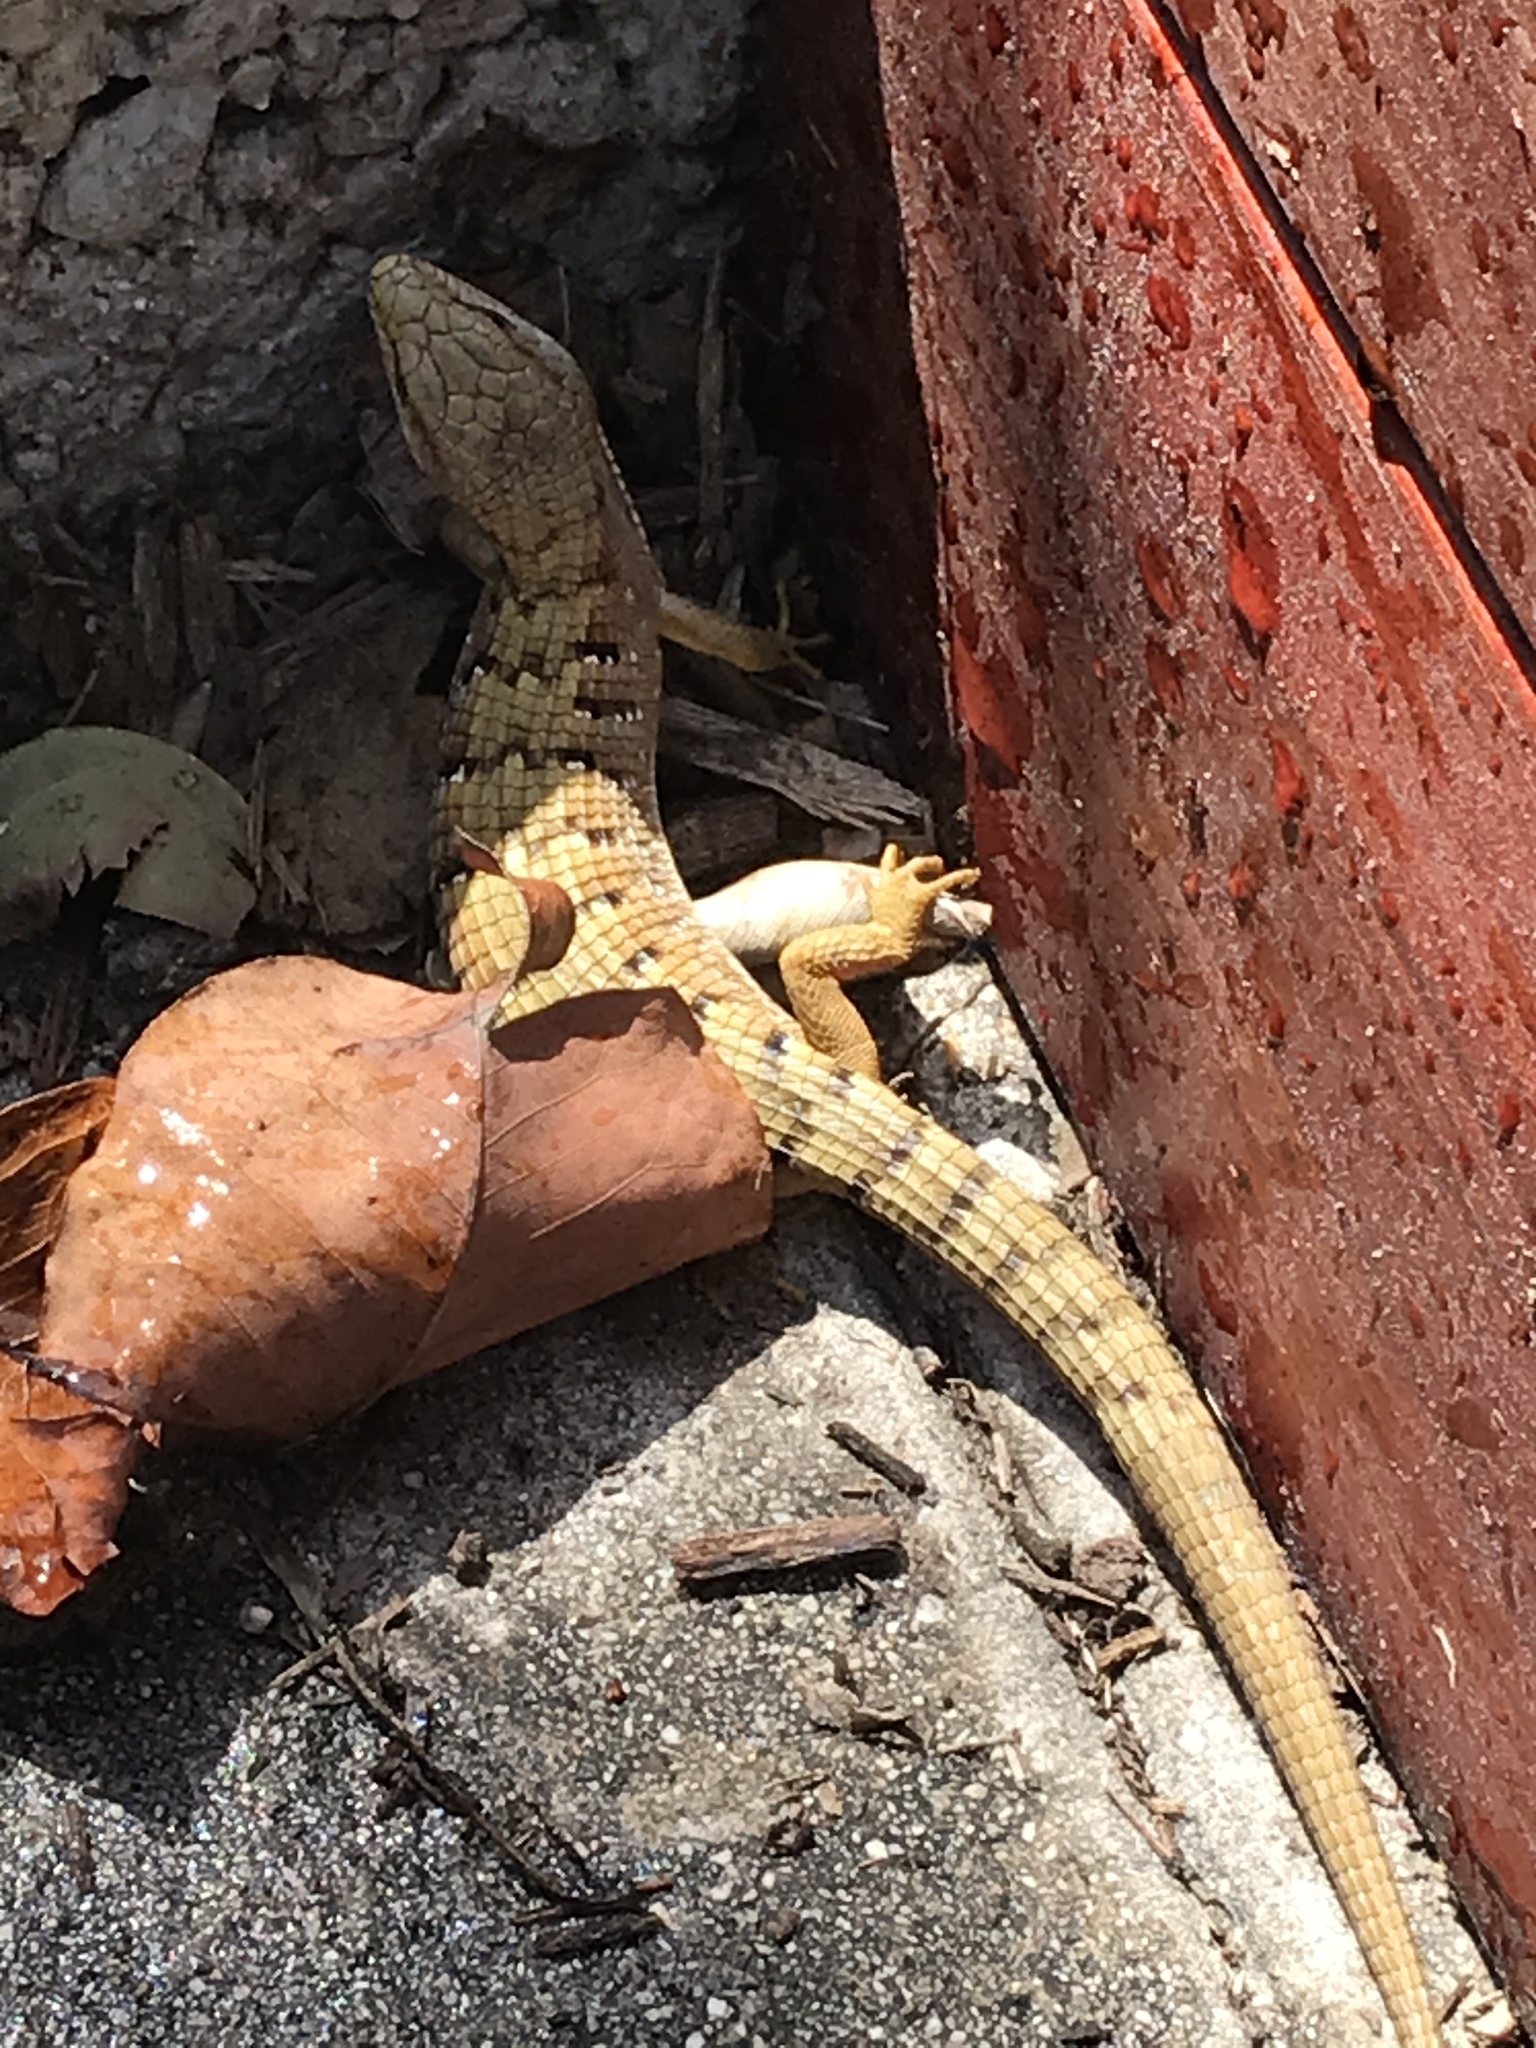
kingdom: Animalia
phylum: Chordata
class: Squamata
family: Anguidae
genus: Elgaria
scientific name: Elgaria multicarinata
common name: Southern alligator lizard
